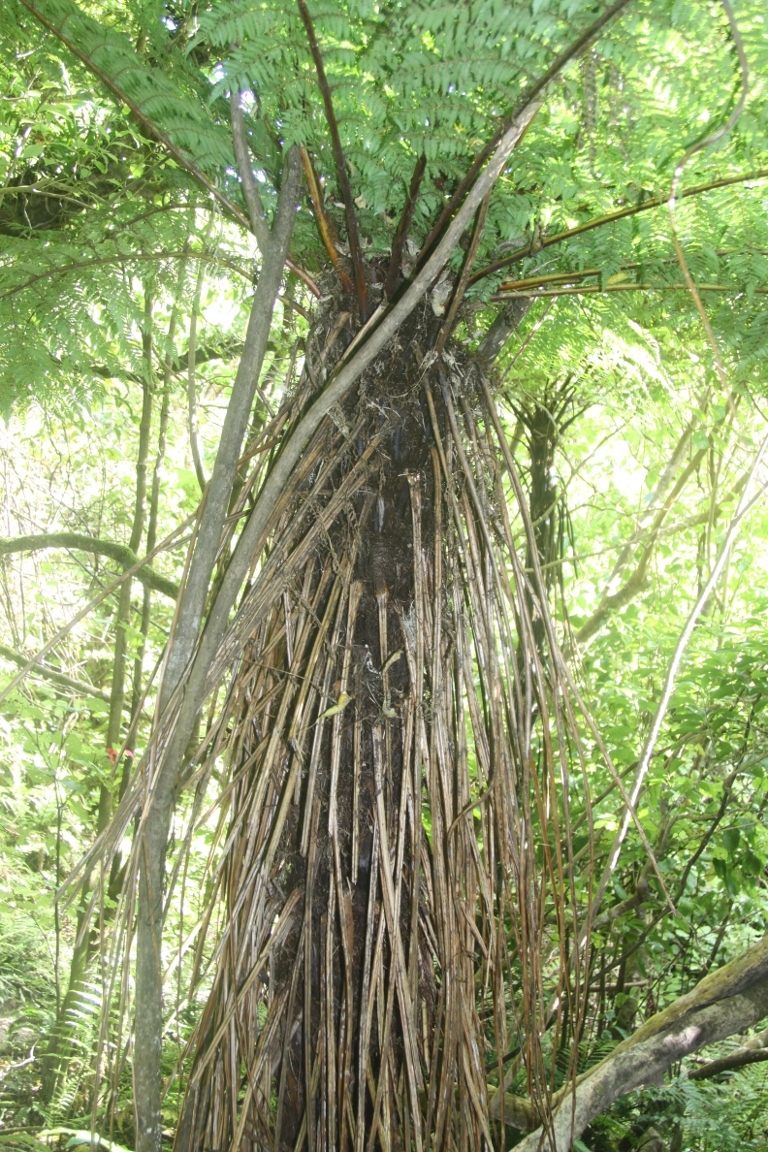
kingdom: Plantae
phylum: Tracheophyta
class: Polypodiopsida
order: Cyatheales
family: Cyatheaceae
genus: Alsophila
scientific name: Alsophila smithii
